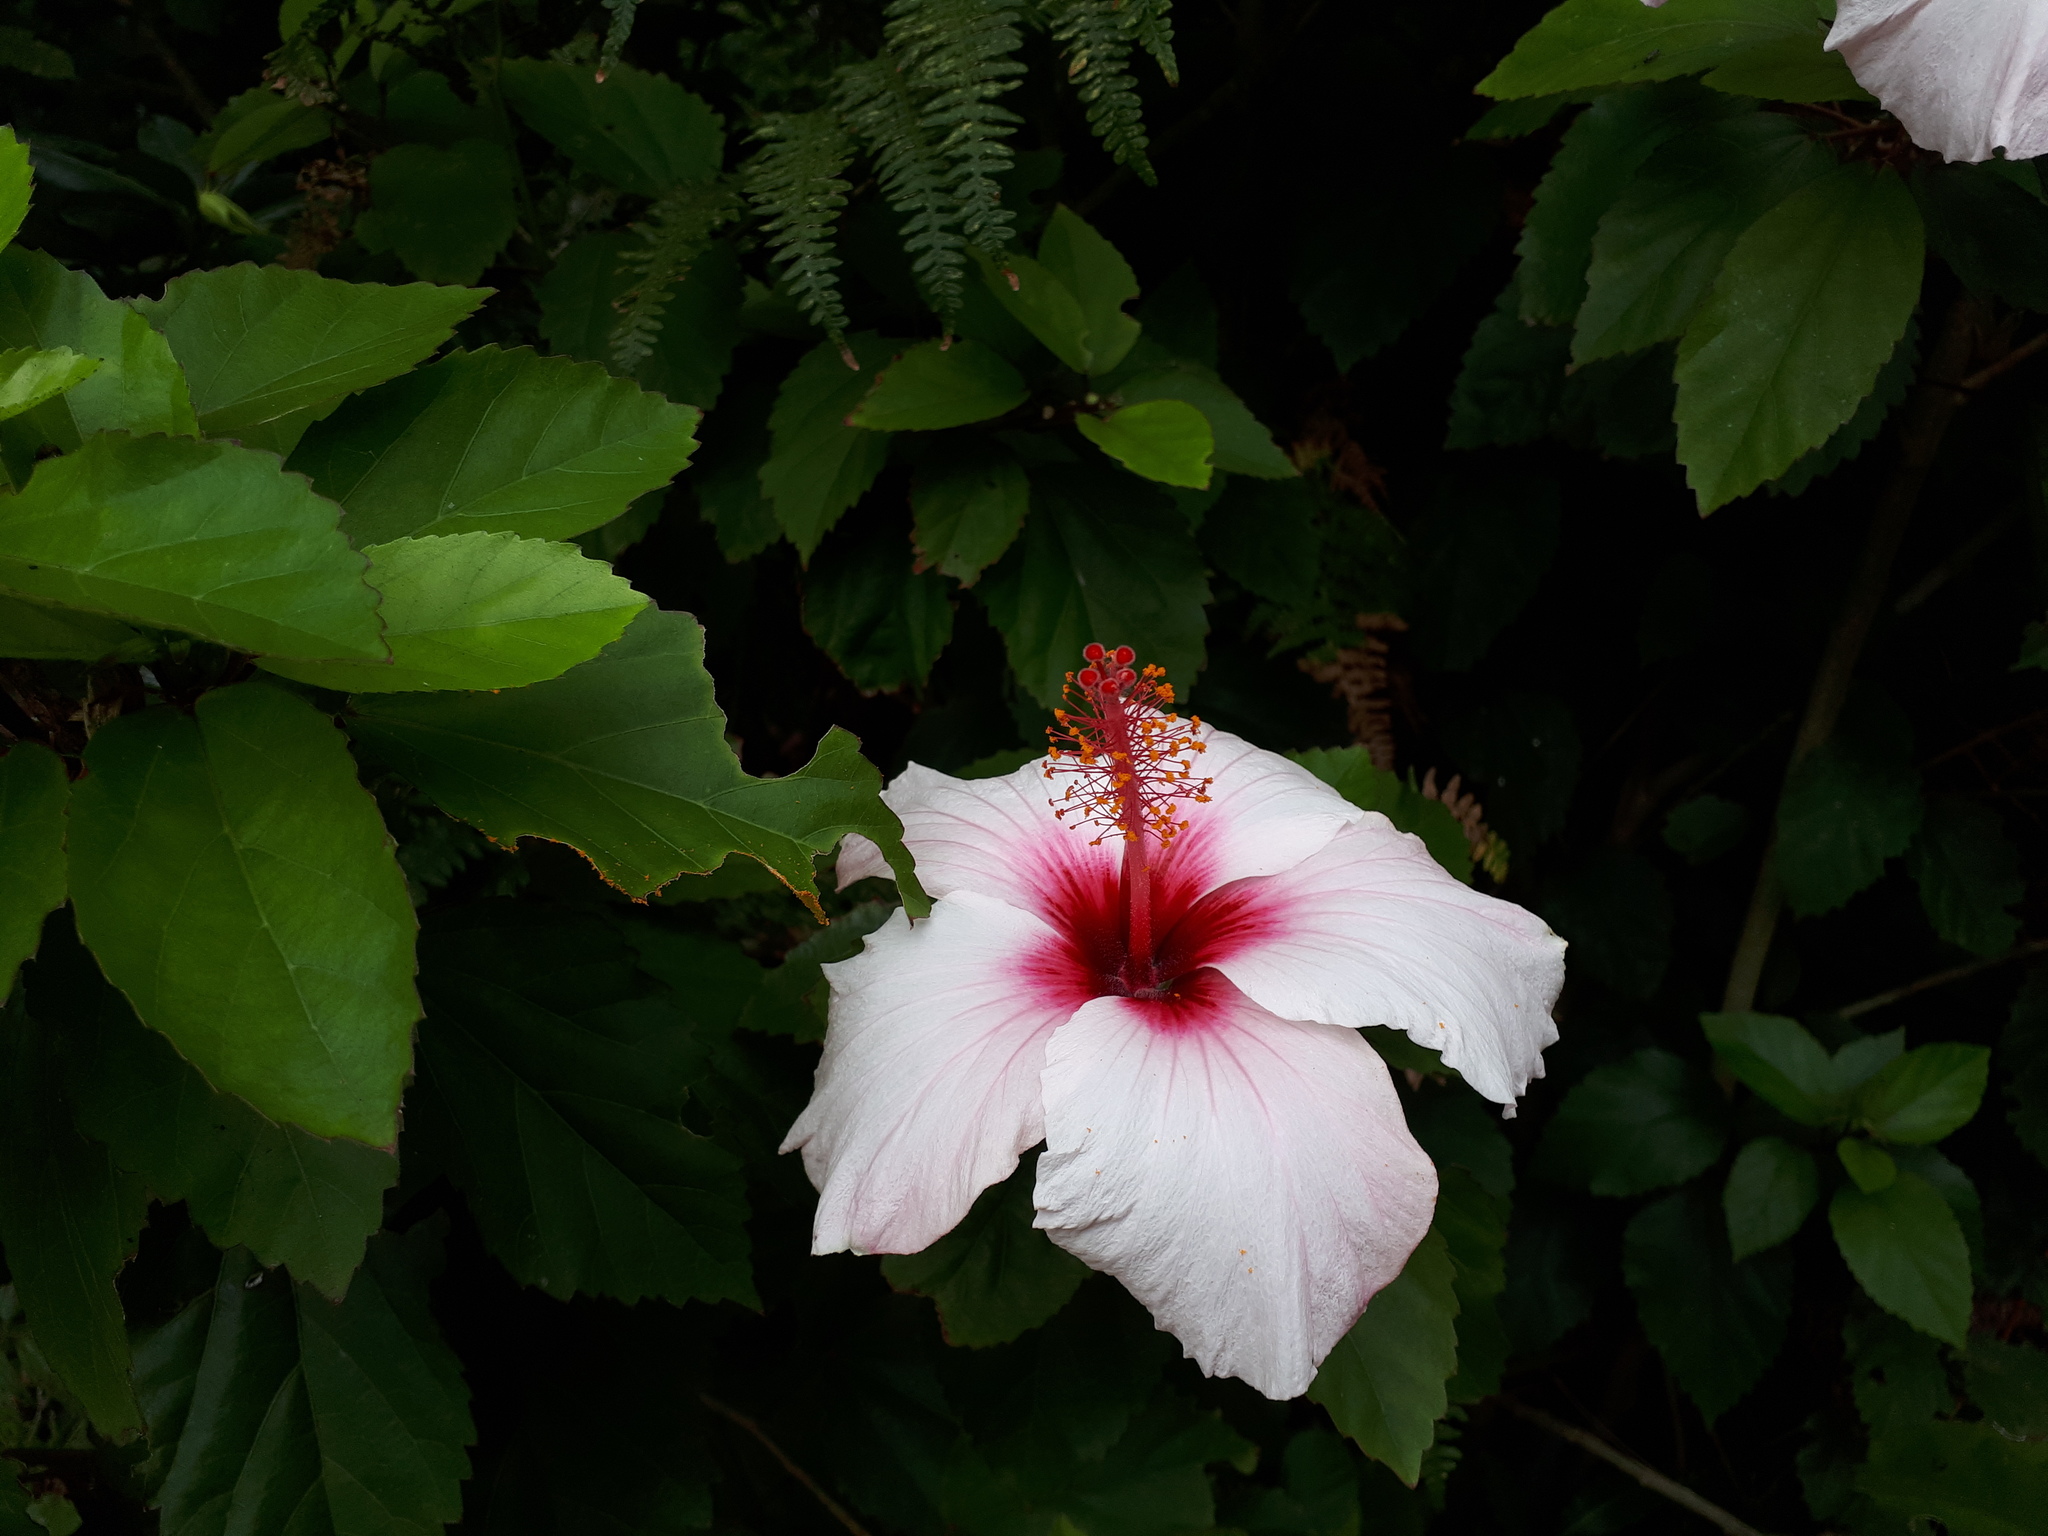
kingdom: Plantae
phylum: Tracheophyta
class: Magnoliopsida
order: Malvales
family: Malvaceae
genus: Hibiscus
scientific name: Hibiscus rosa-sinensis
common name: Hibiscus
